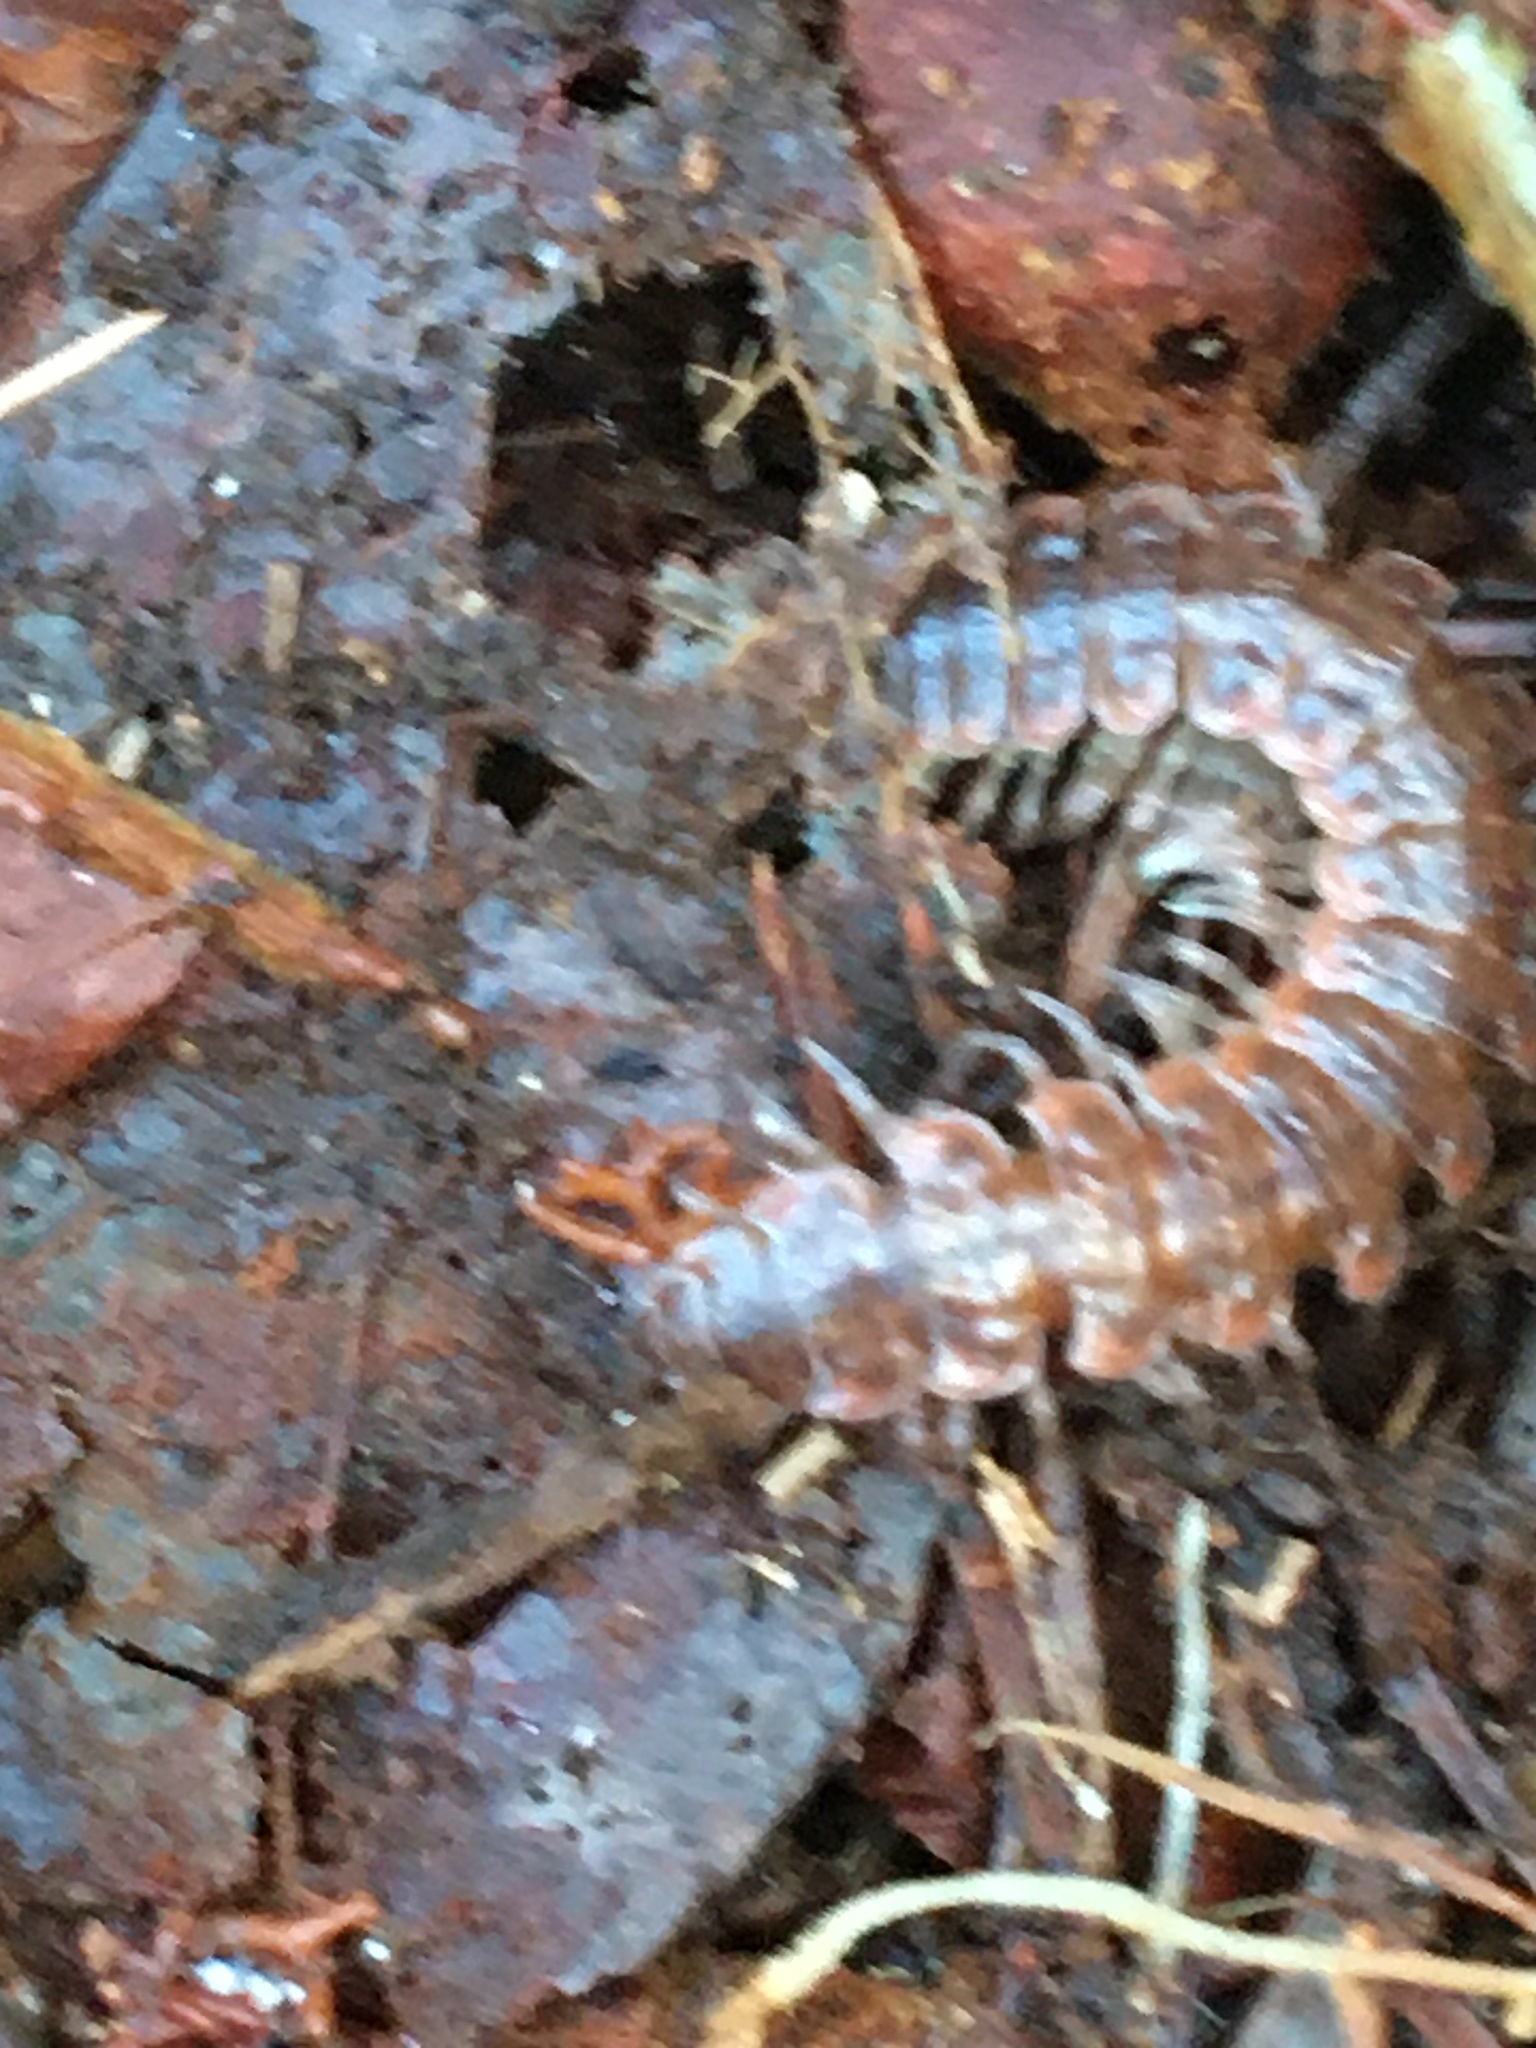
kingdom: Animalia
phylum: Arthropoda
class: Diplopoda
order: Polydesmida
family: Polydesmidae
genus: Pseudopolydesmus
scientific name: Pseudopolydesmus serratus
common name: Common pink flat-back millipede
